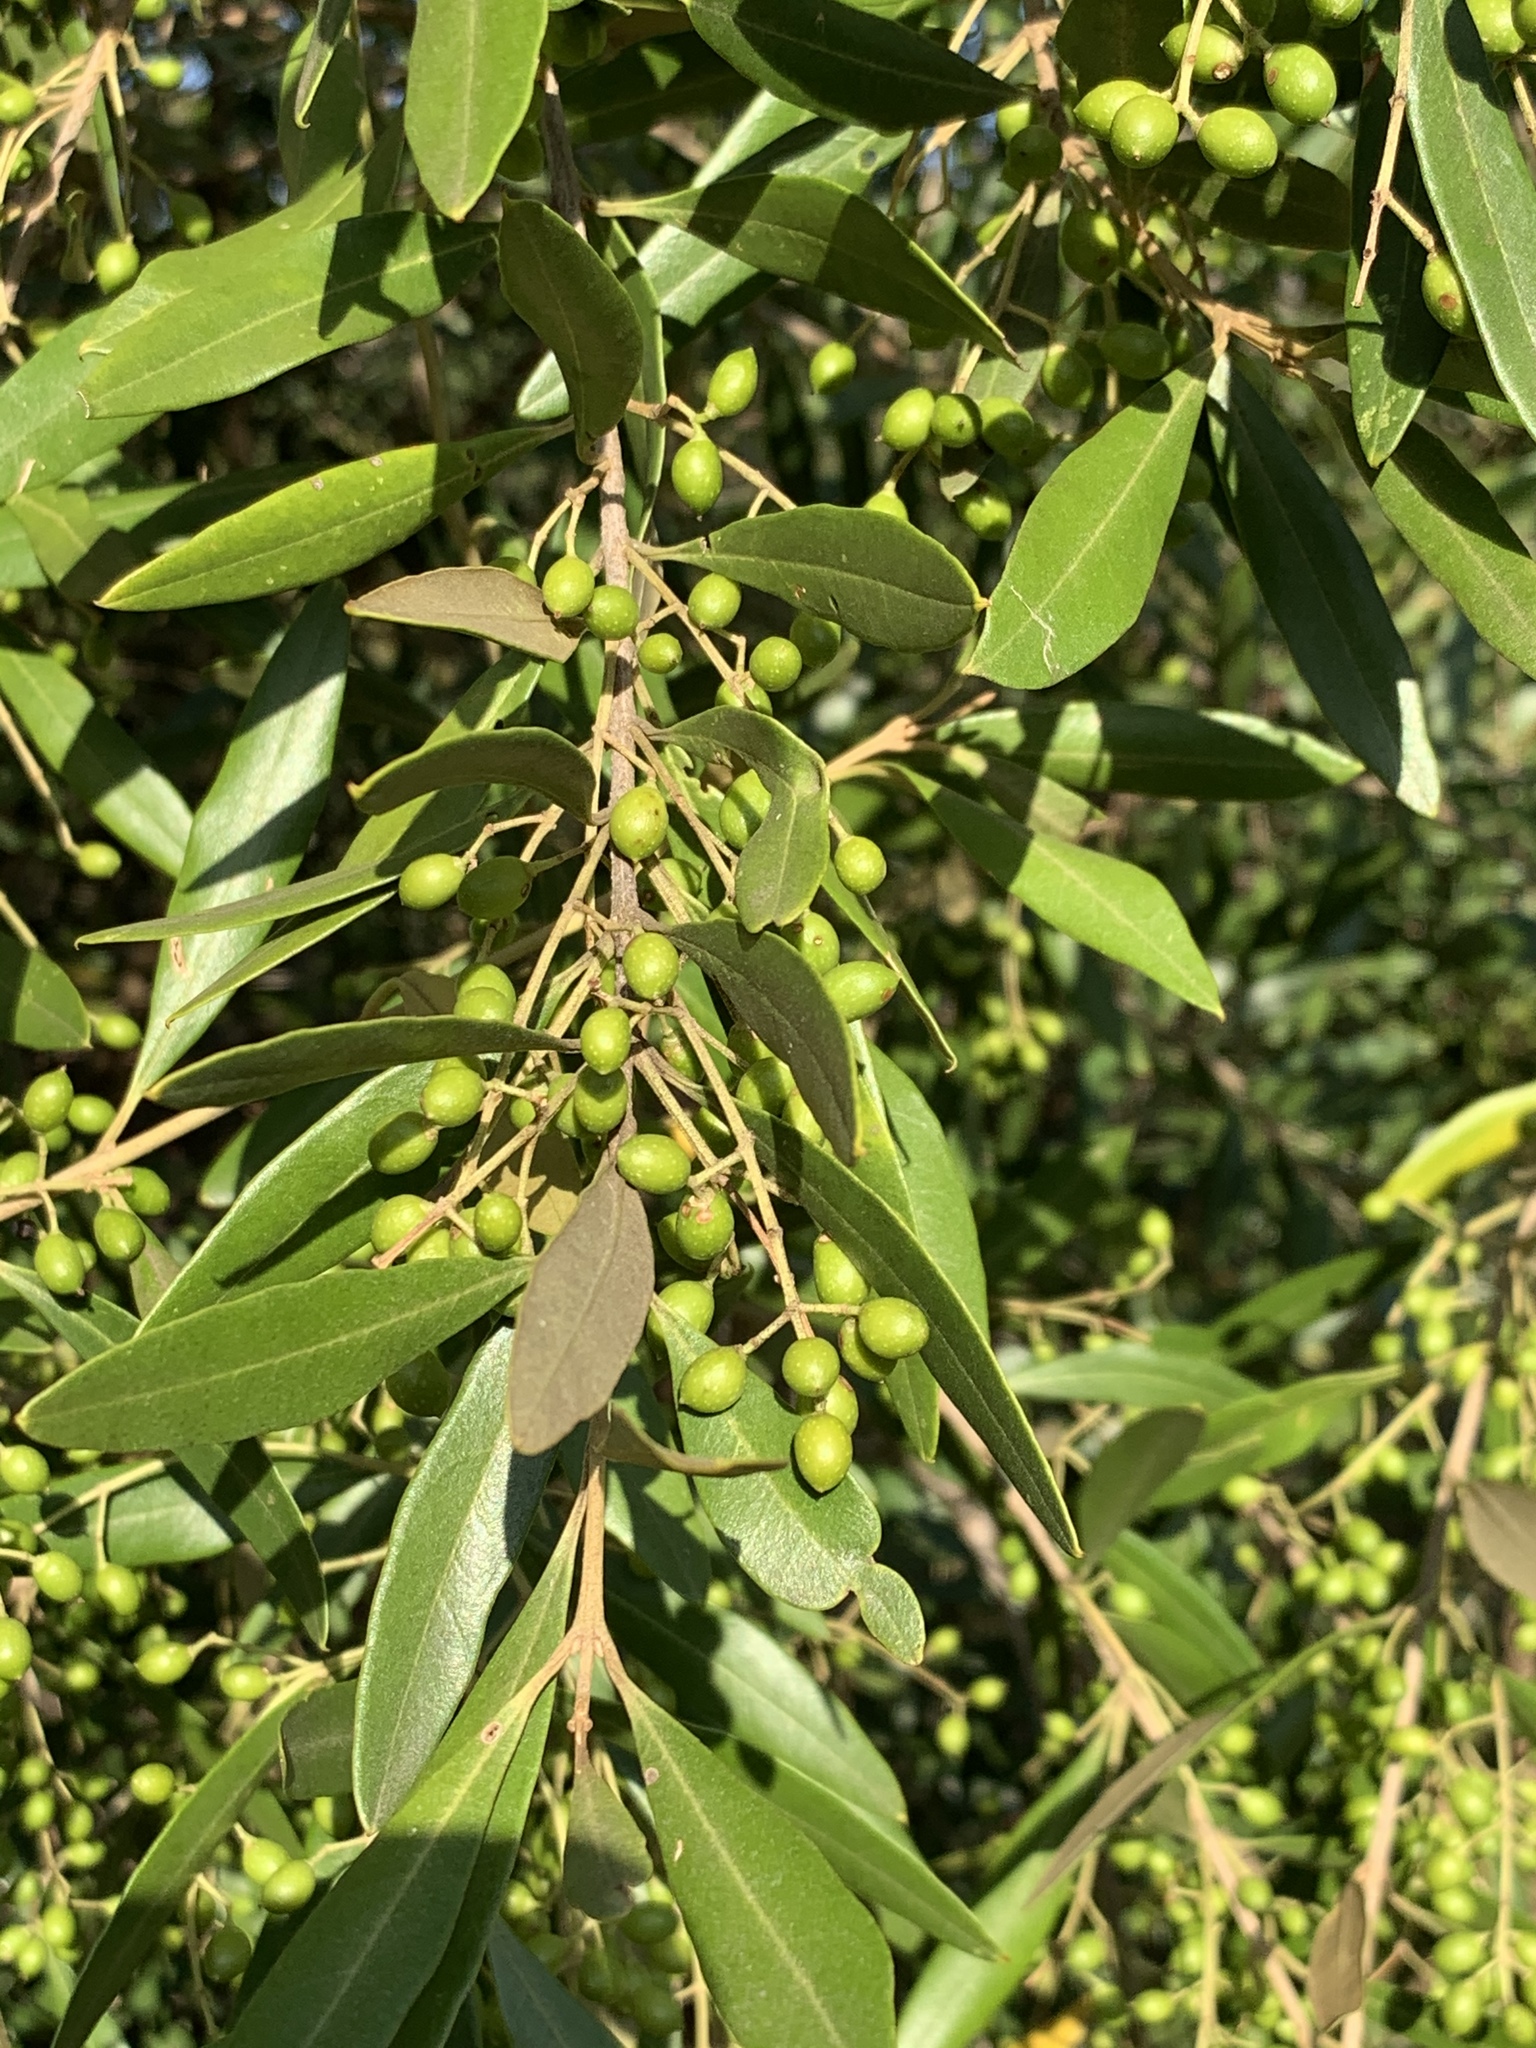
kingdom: Plantae
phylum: Tracheophyta
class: Magnoliopsida
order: Lamiales
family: Oleaceae
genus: Olea
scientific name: Olea europaea
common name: Olive
